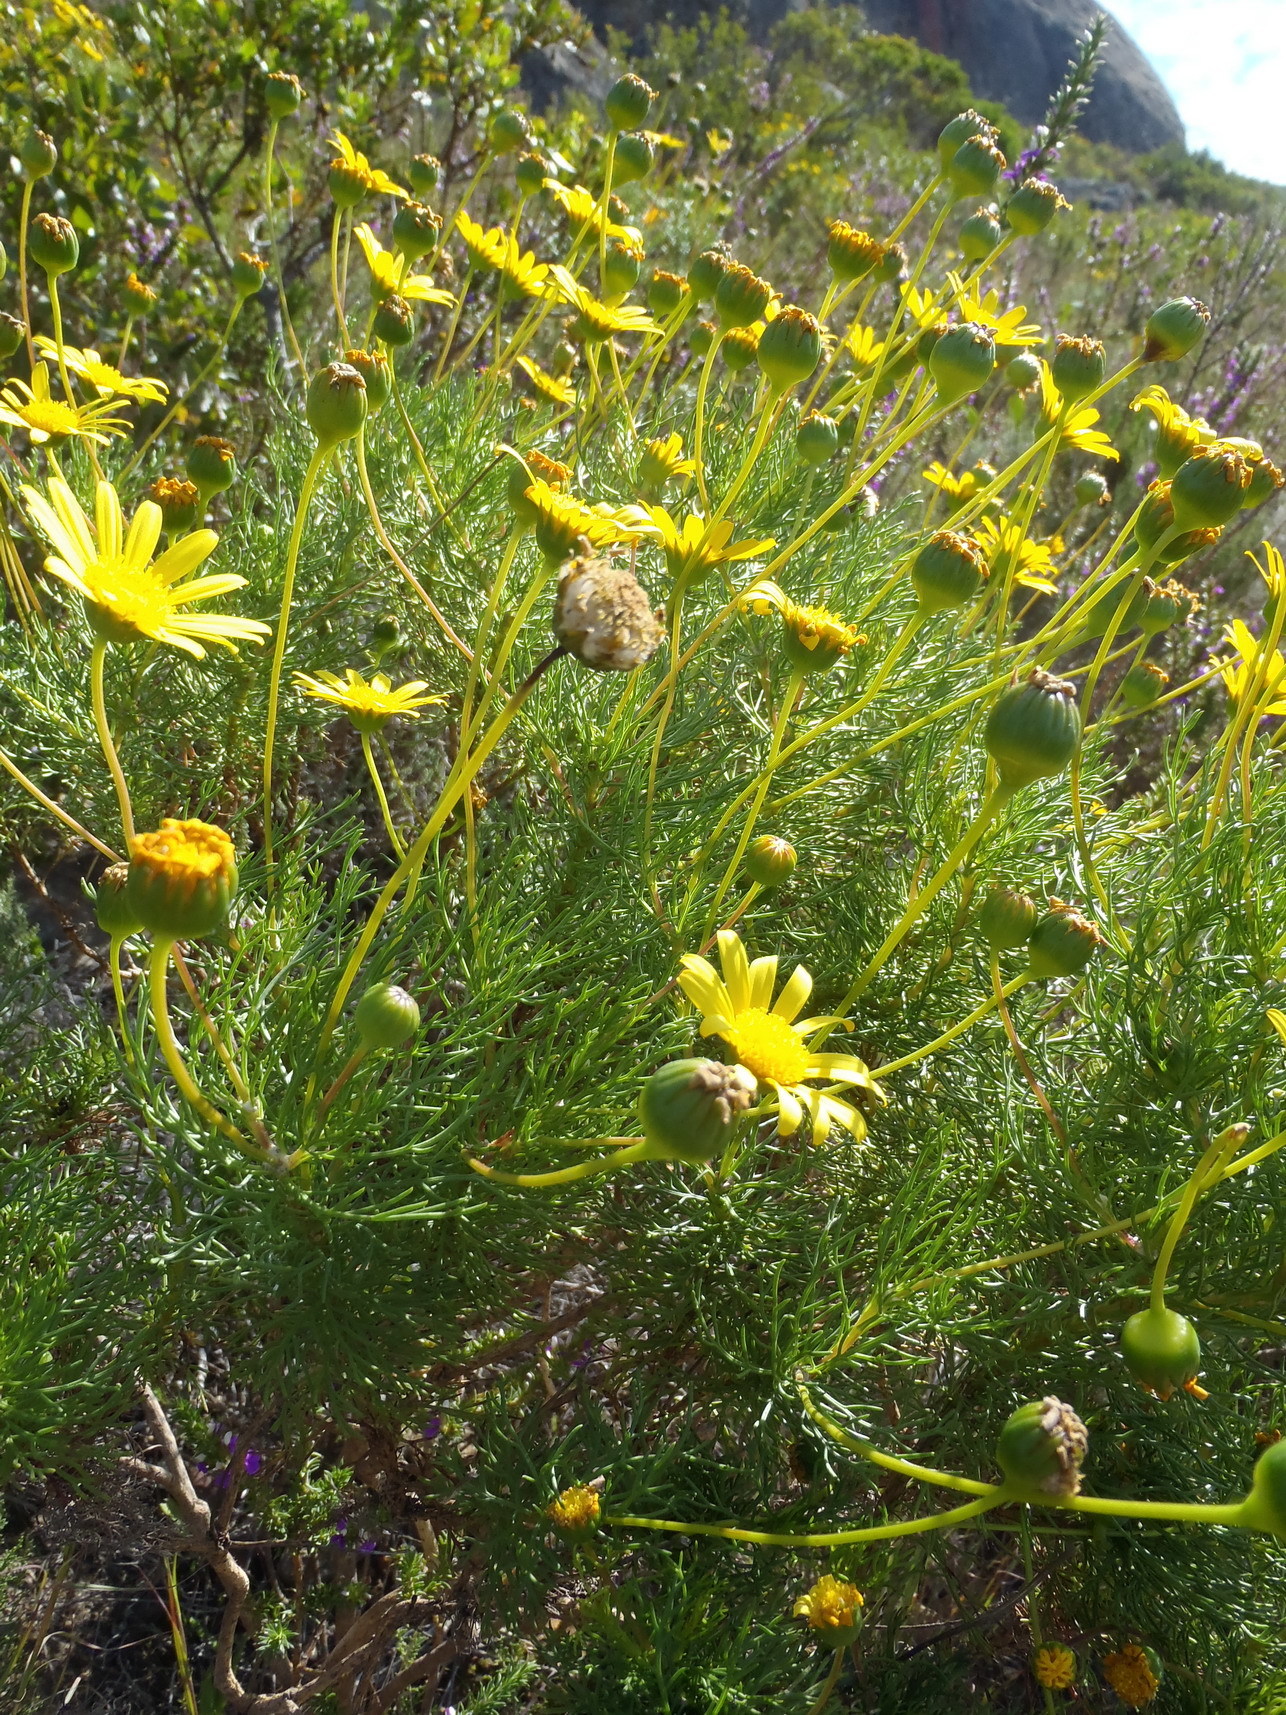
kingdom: Plantae
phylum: Tracheophyta
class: Magnoliopsida
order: Asterales
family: Asteraceae
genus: Euryops
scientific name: Euryops abrotanifolius
